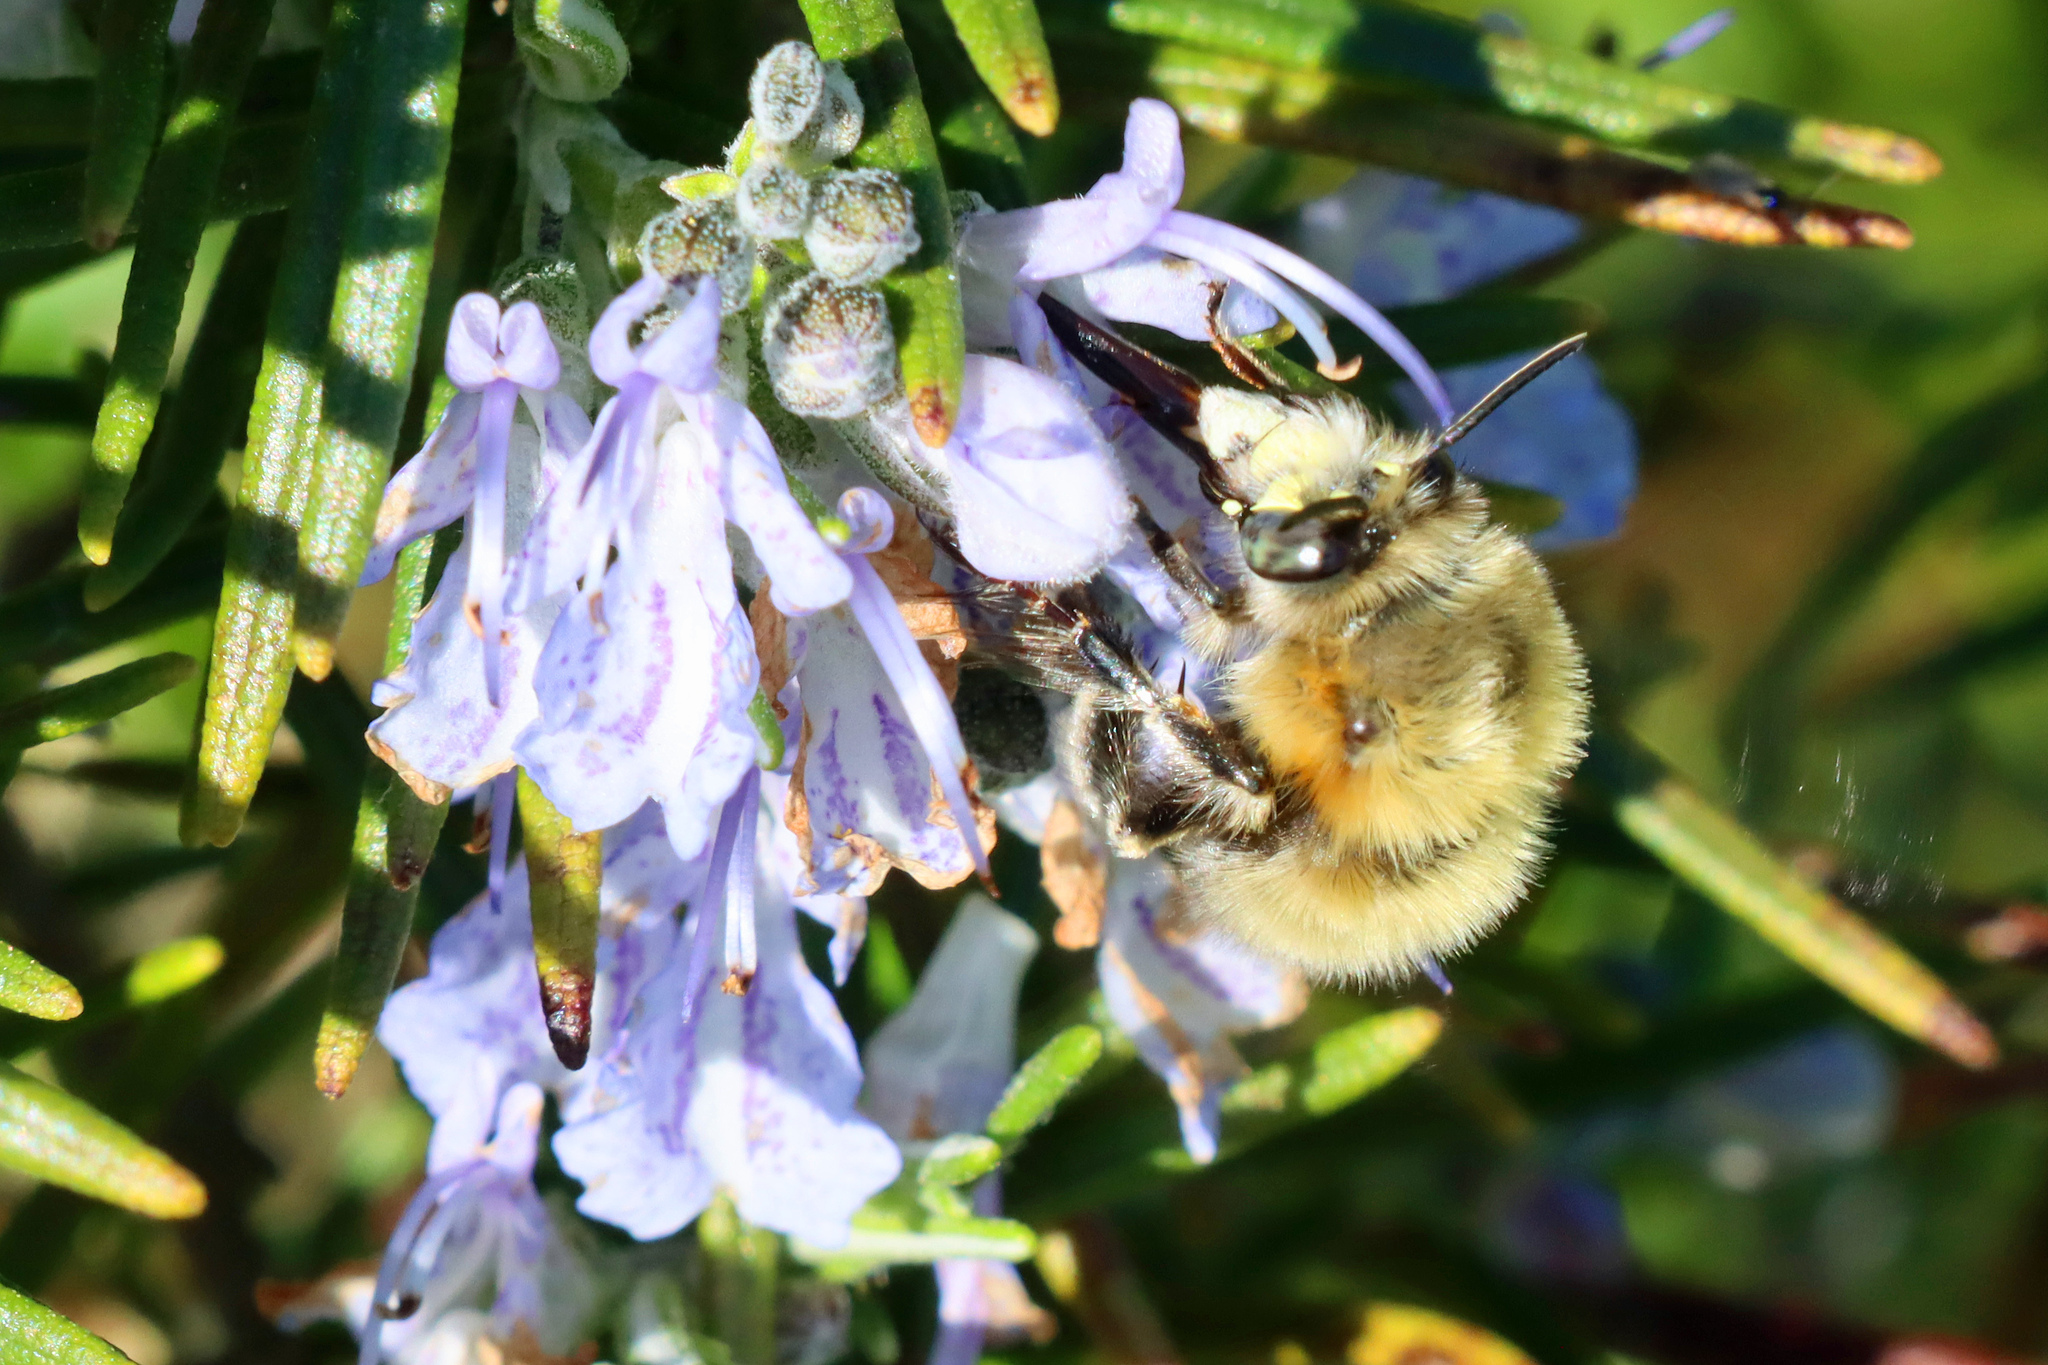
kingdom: Animalia
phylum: Arthropoda
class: Insecta
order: Hymenoptera
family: Apidae
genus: Anthophora
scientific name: Anthophora plumipes
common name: Hairy-footed flower bee
